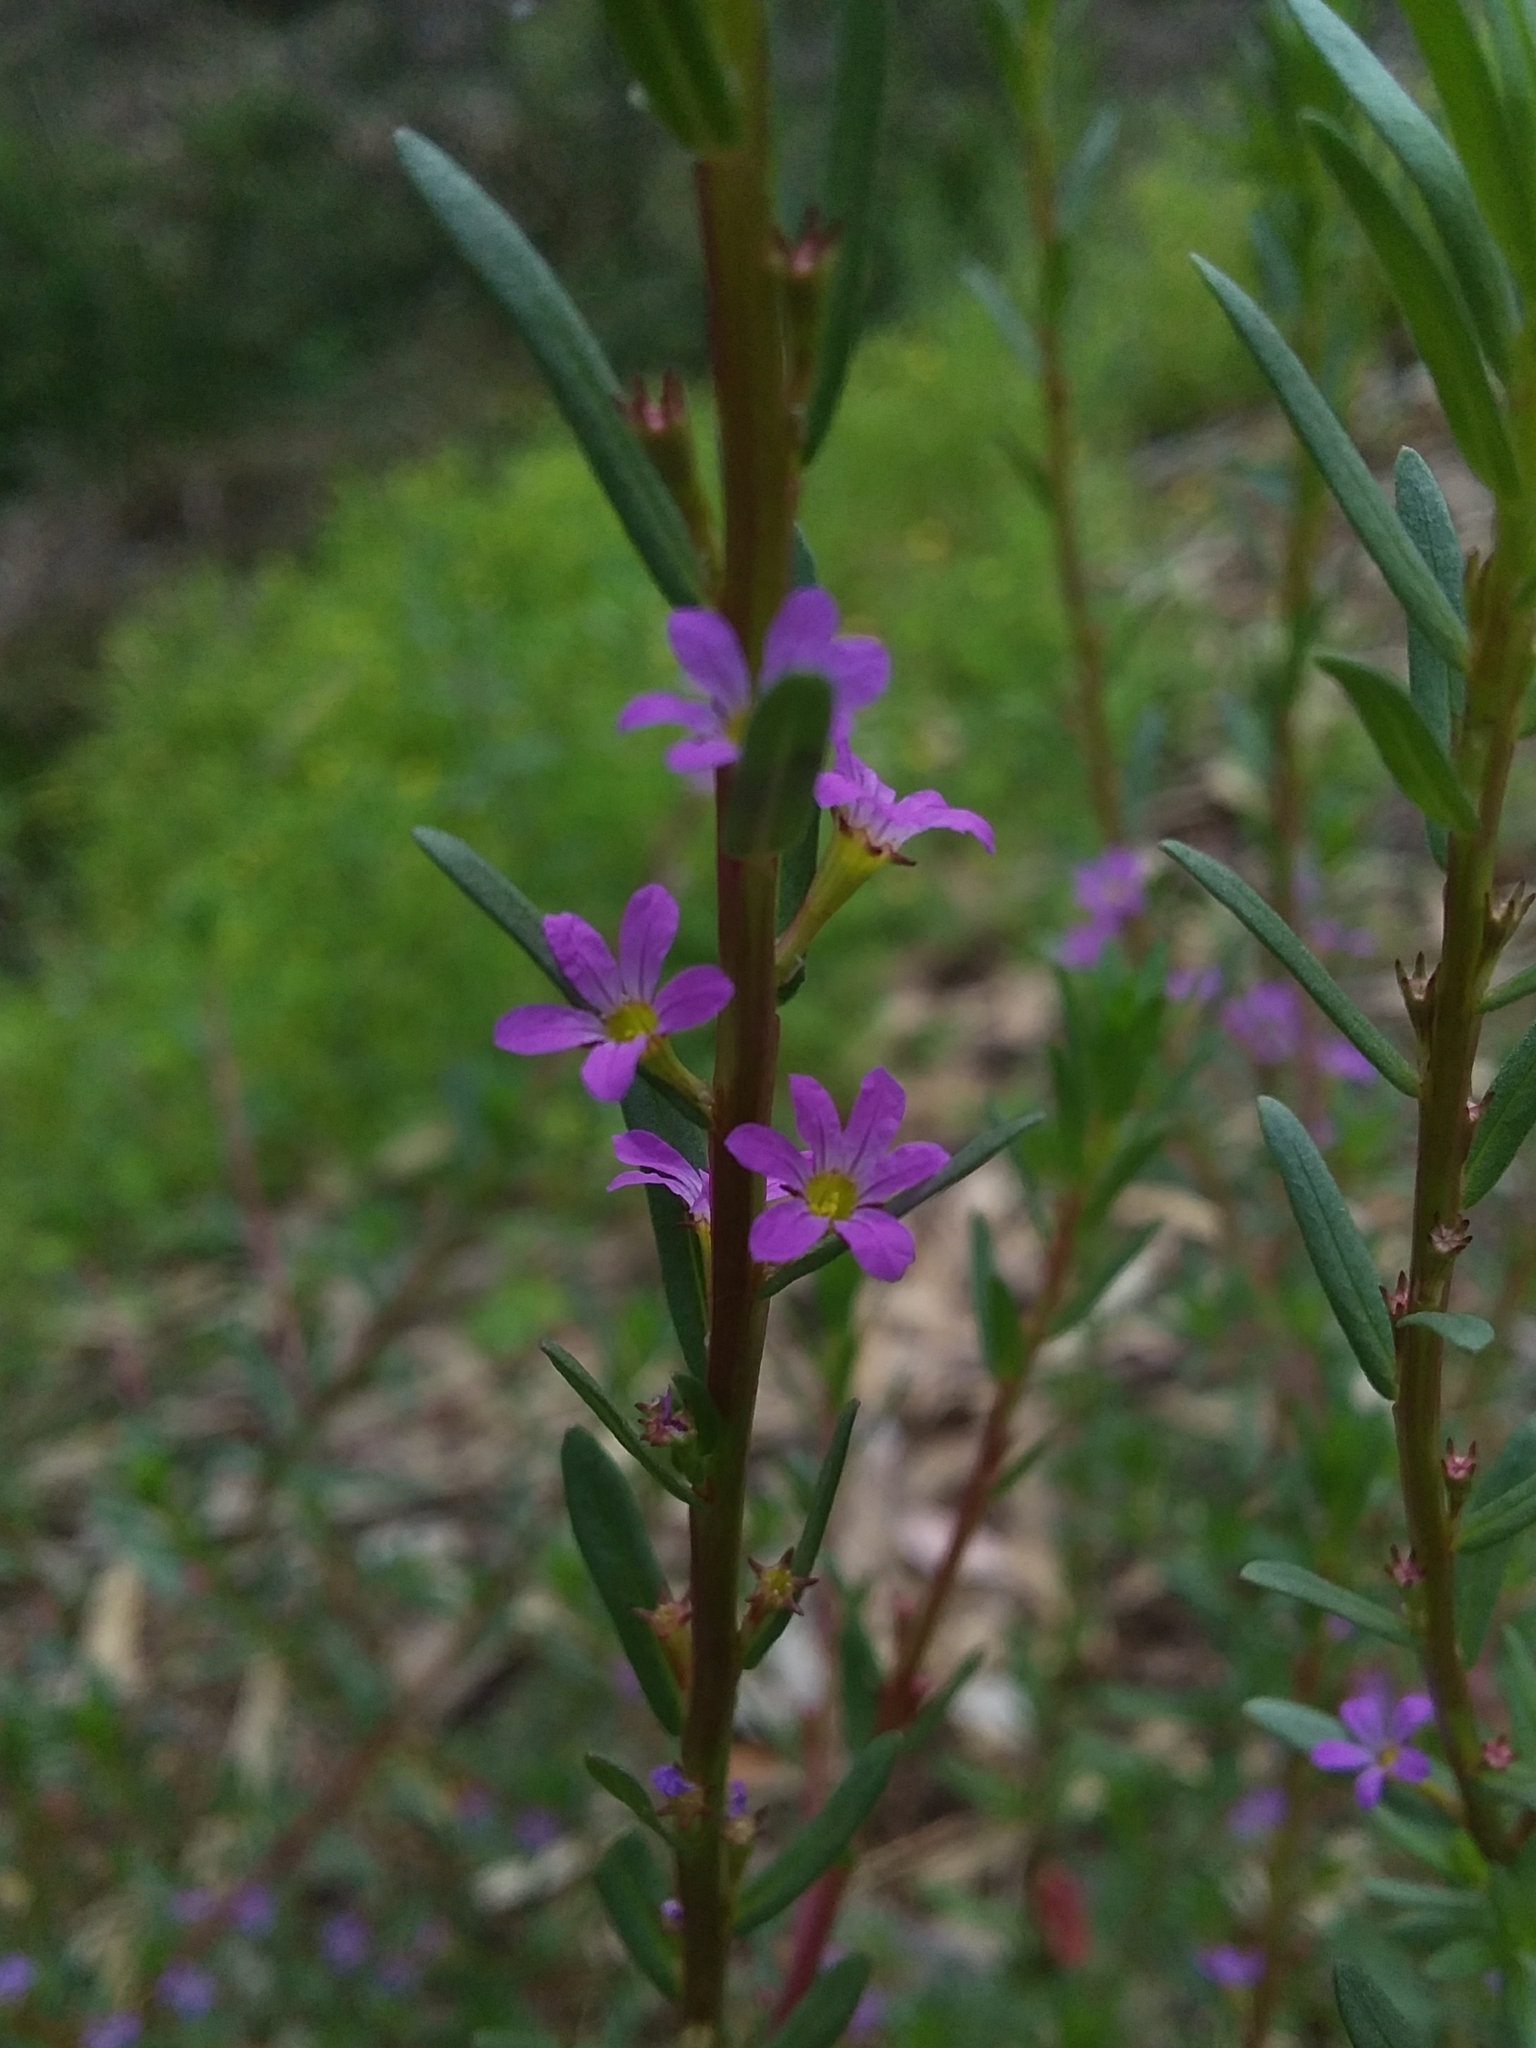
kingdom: Plantae
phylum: Tracheophyta
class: Magnoliopsida
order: Myrtales
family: Lythraceae
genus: Lythrum
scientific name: Lythrum hyssopifolia
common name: Grass-poly
